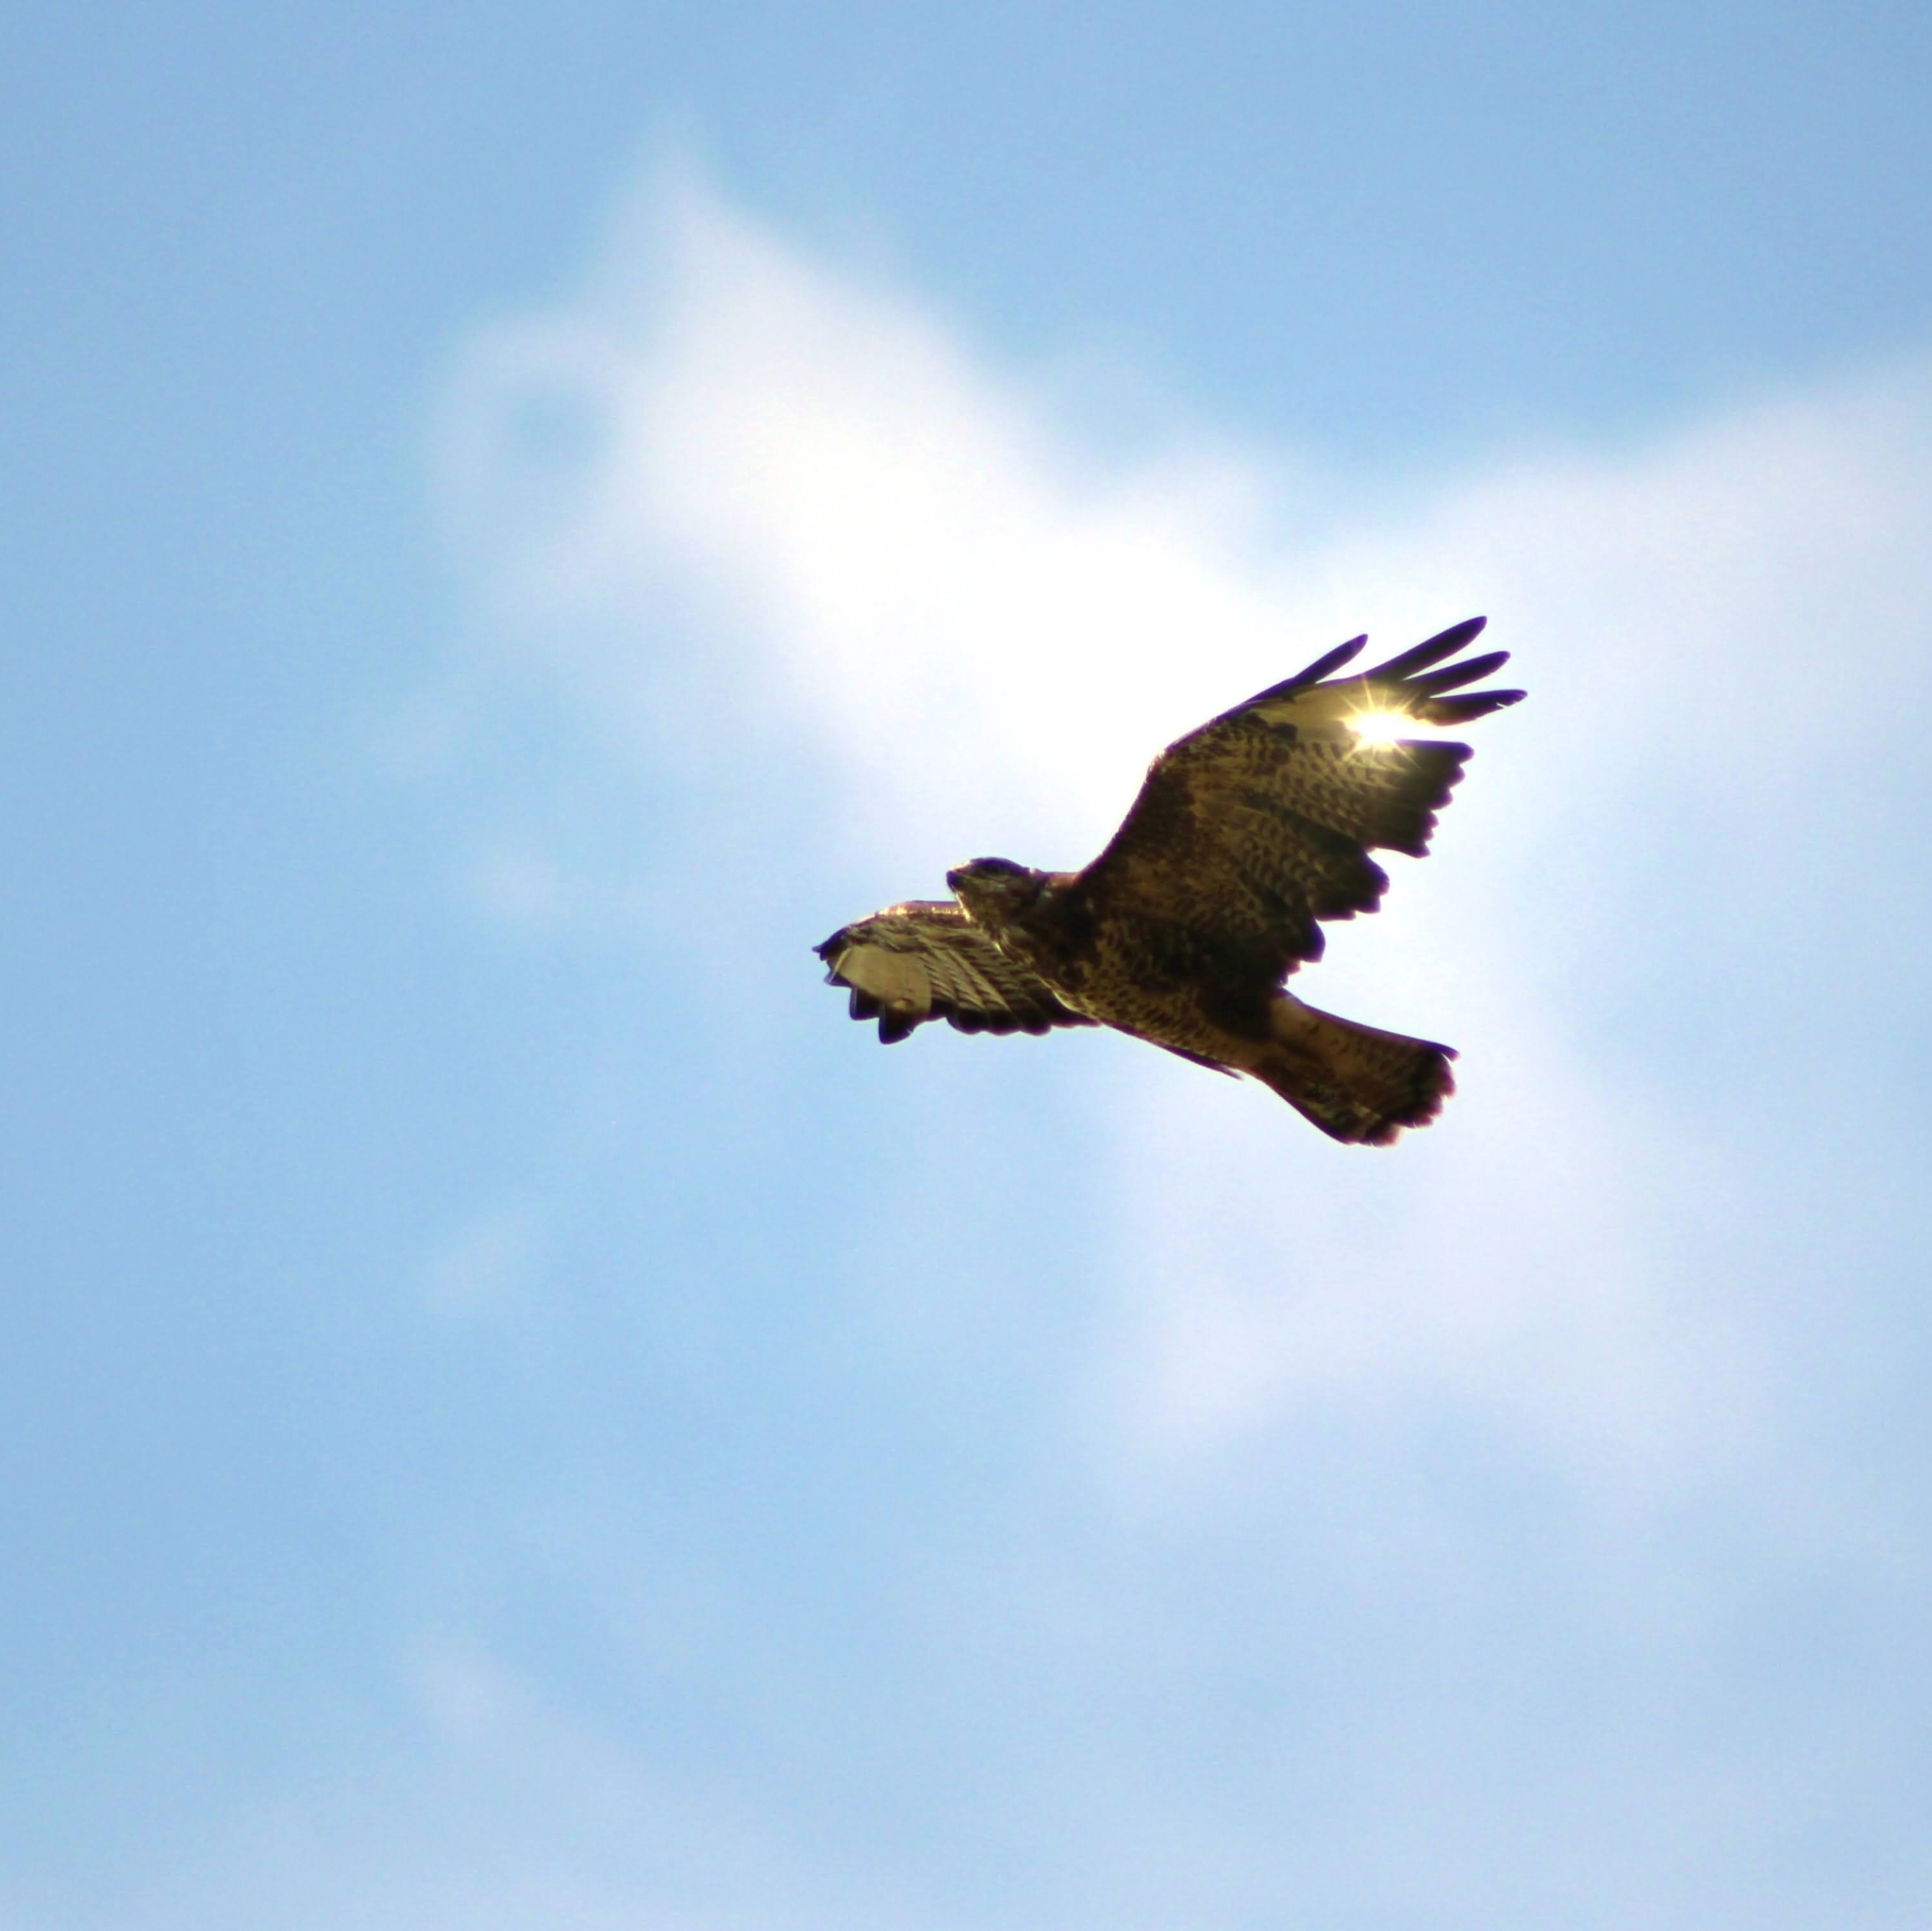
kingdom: Animalia
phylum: Chordata
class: Aves
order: Accipitriformes
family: Accipitridae
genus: Buteo
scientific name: Buteo buteo
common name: Common buzzard
